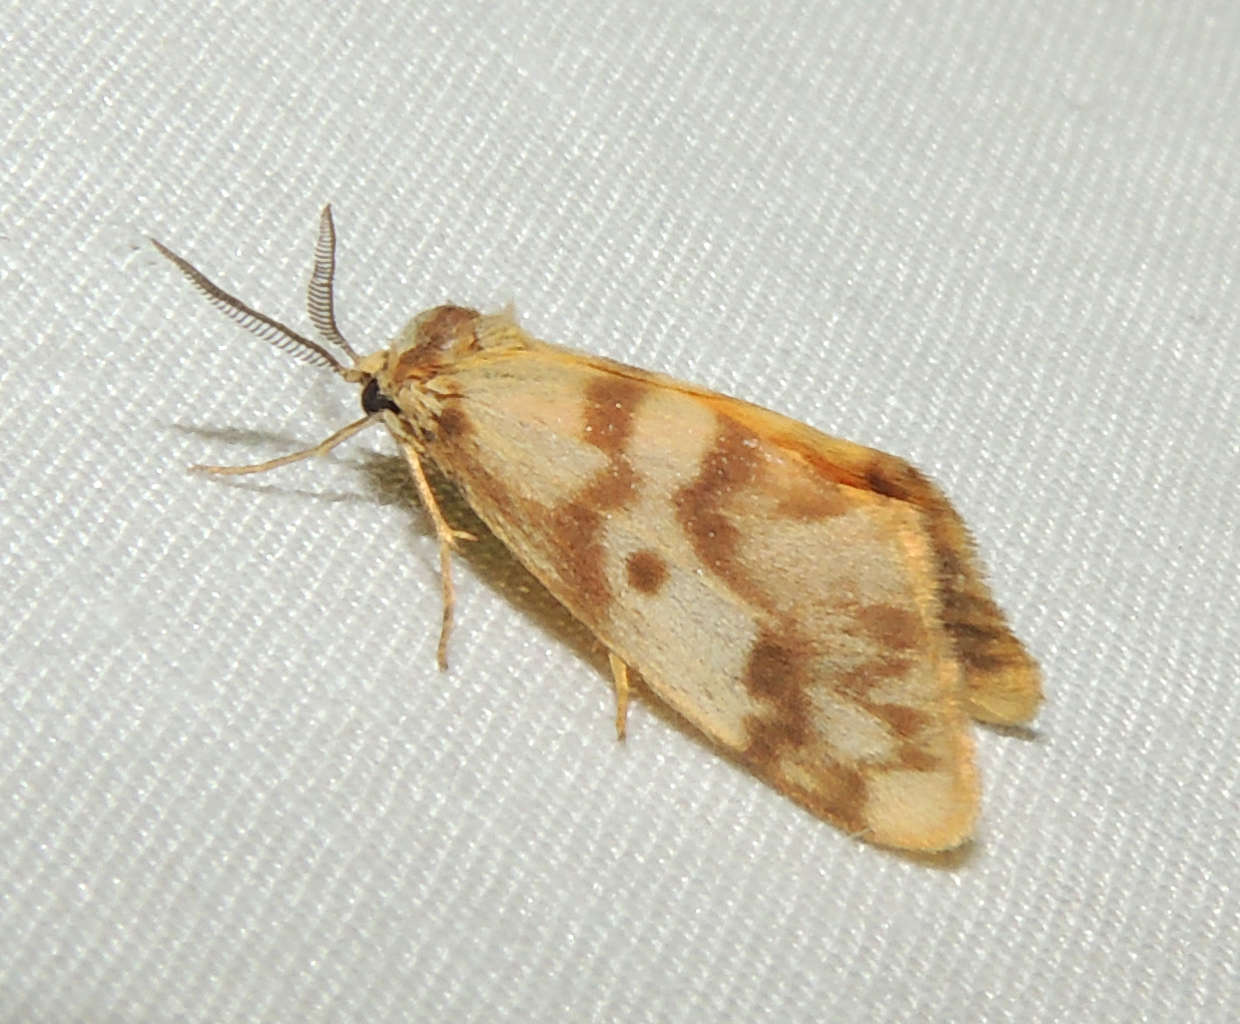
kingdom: Animalia
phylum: Arthropoda
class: Insecta
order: Lepidoptera
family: Erebidae
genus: Anestia
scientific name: Anestia
